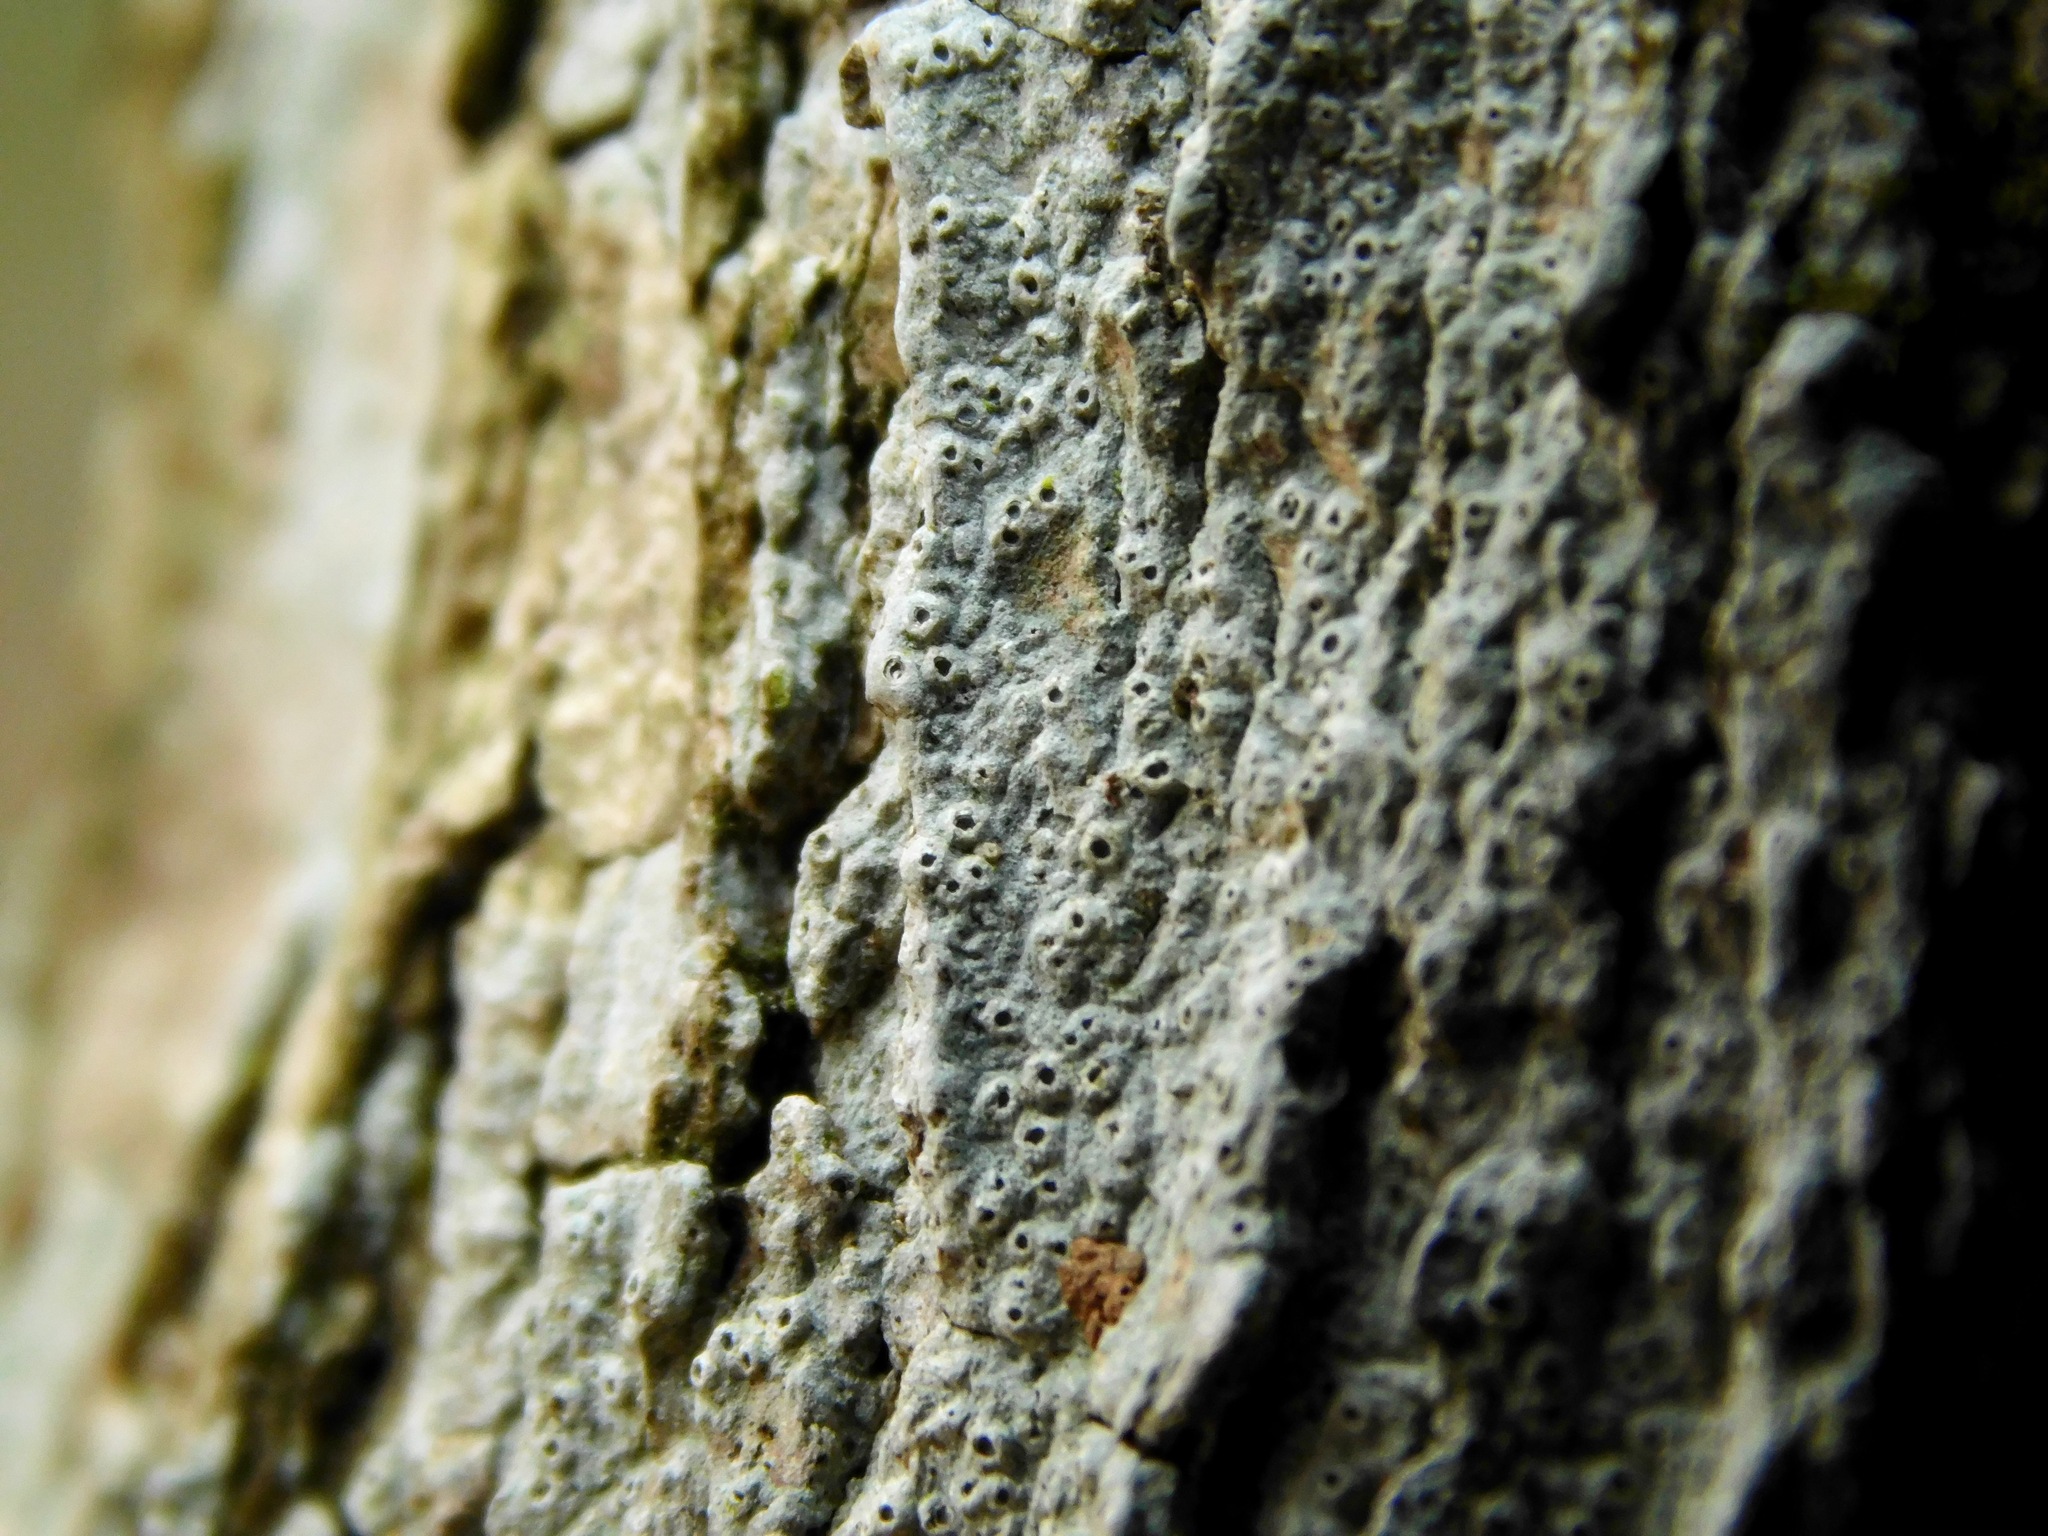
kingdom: Fungi
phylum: Ascomycota
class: Lecanoromycetes
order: Ostropales
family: Graphidaceae
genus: Thelotrema
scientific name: Thelotrema subtile
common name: Delicate barnacles lichen
